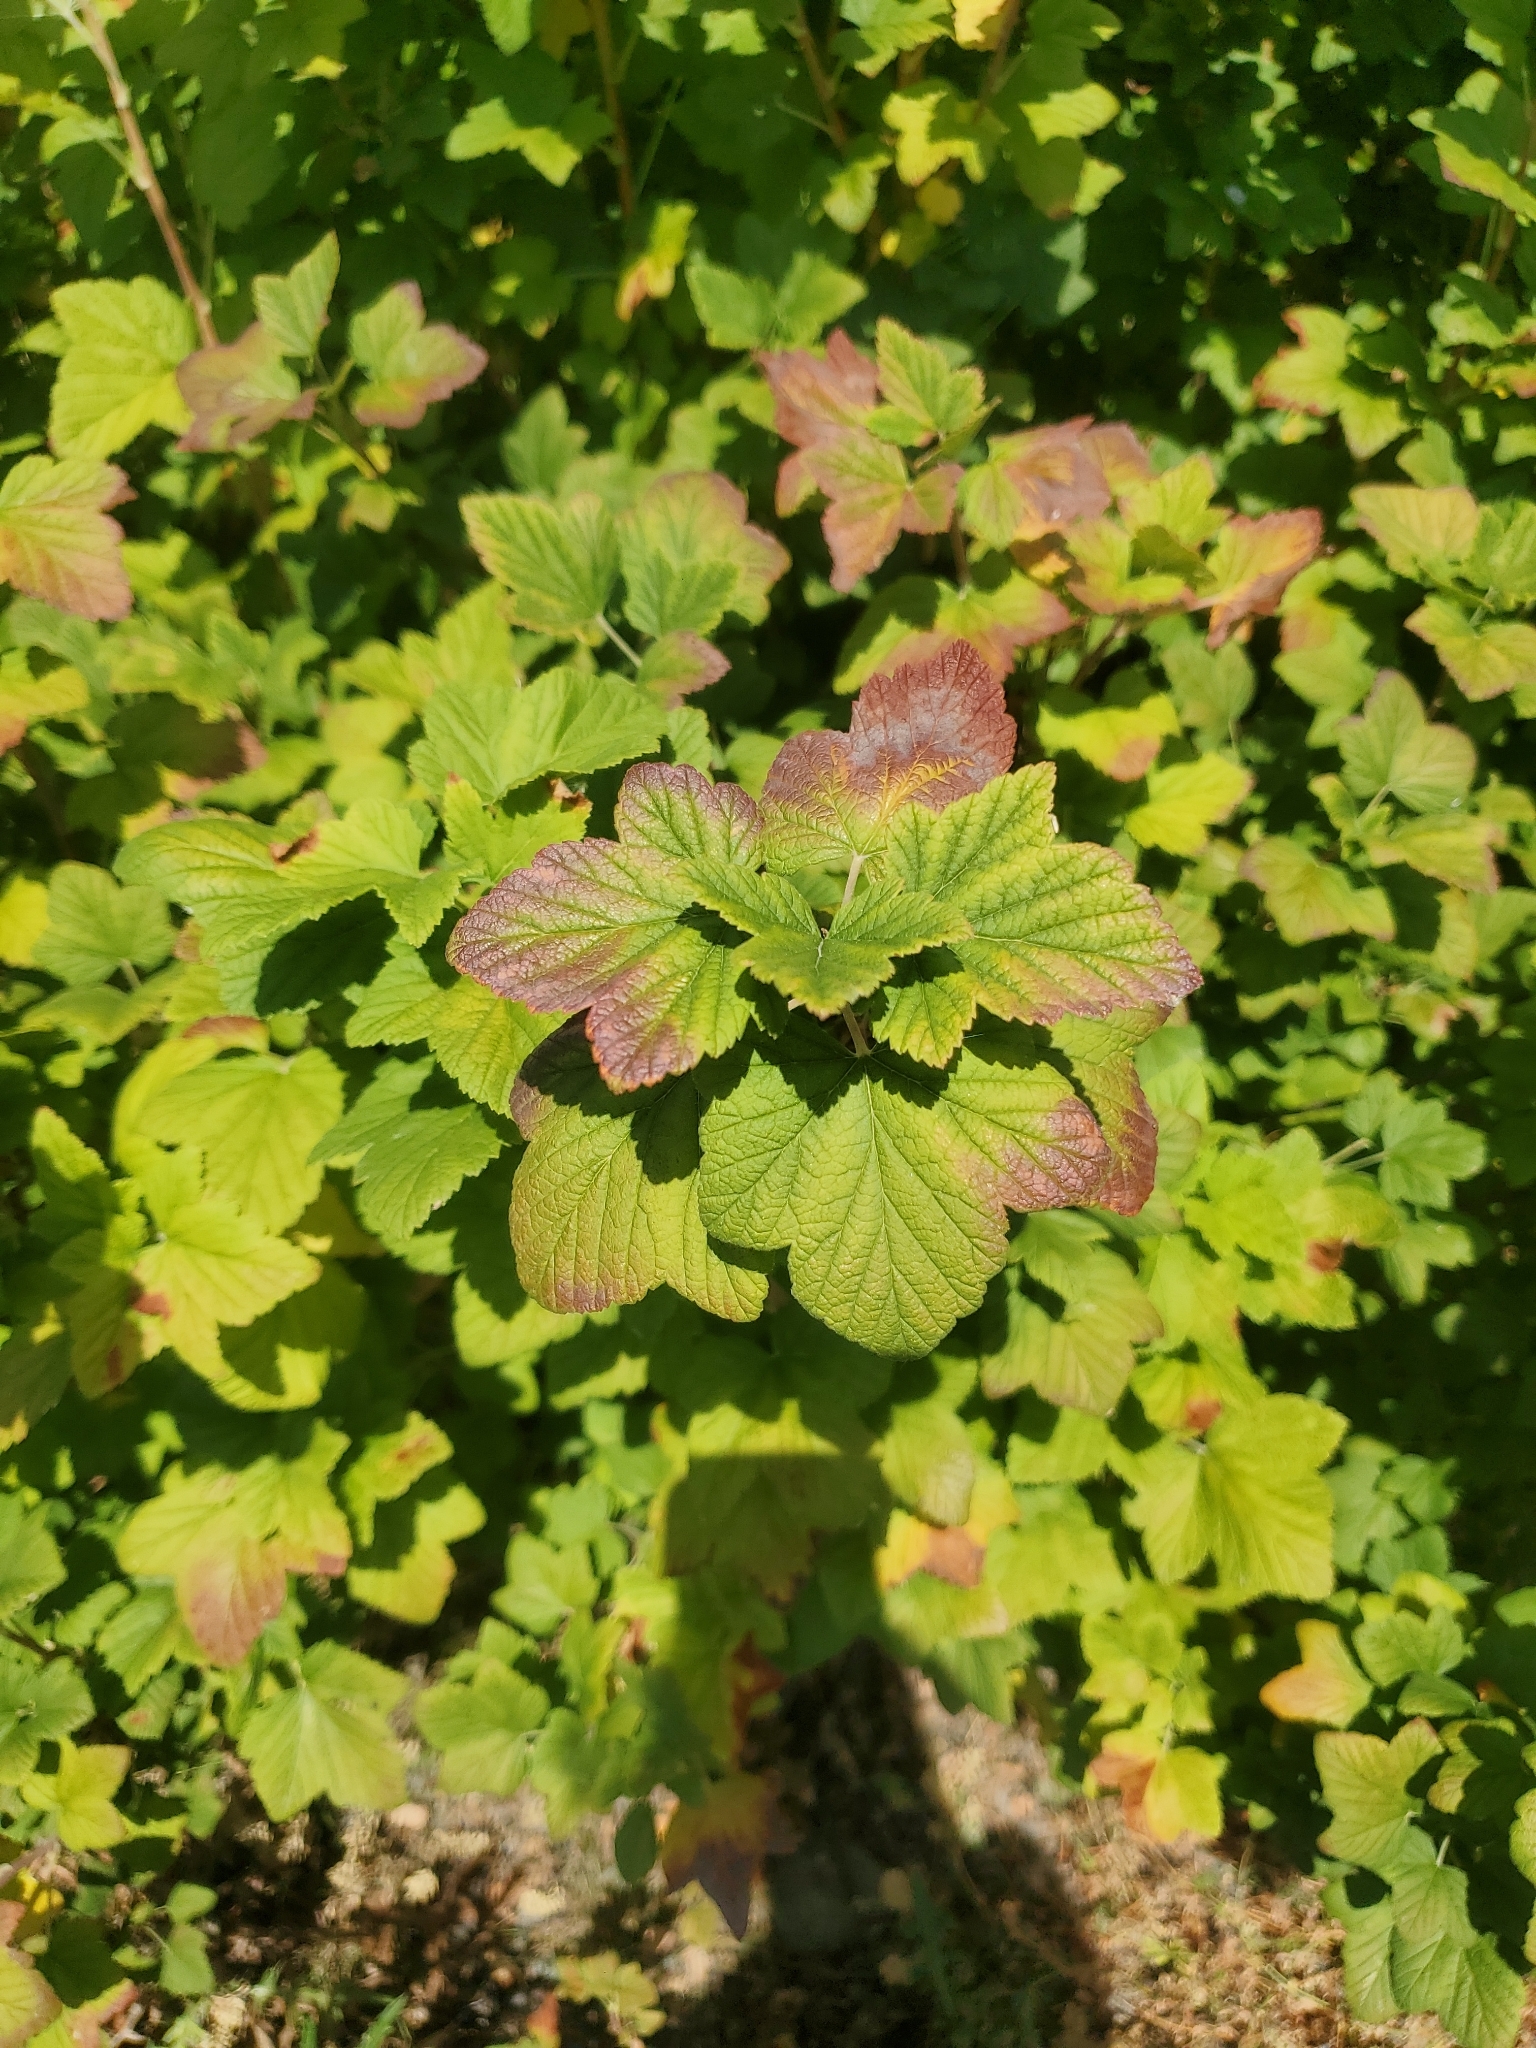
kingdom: Plantae
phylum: Tracheophyta
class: Magnoliopsida
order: Saxifragales
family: Grossulariaceae
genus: Ribes
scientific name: Ribes sanguineum
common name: Flowering currant
